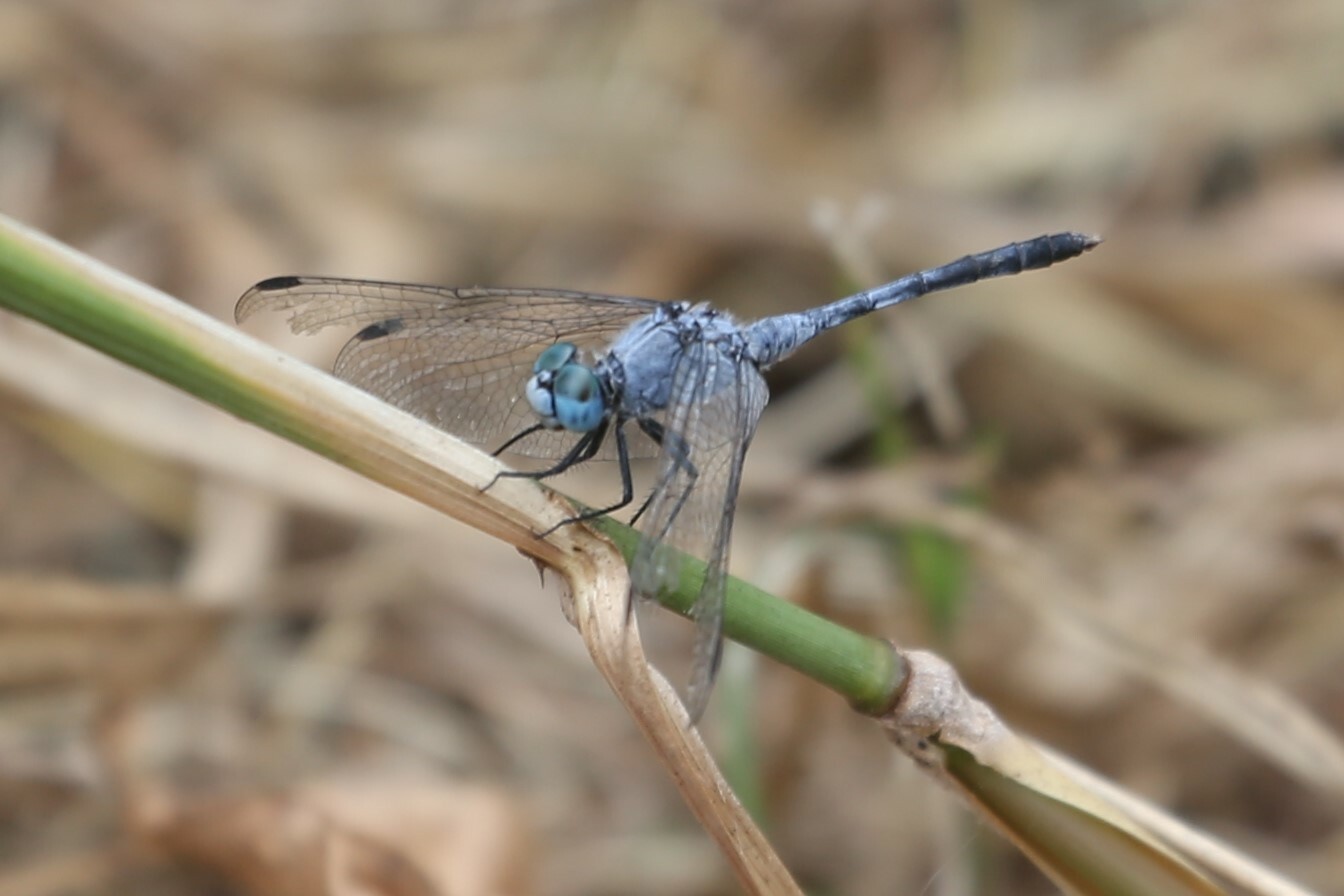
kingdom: Animalia
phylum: Arthropoda
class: Insecta
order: Odonata
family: Libellulidae
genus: Diplacodes
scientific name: Diplacodes trivialis
